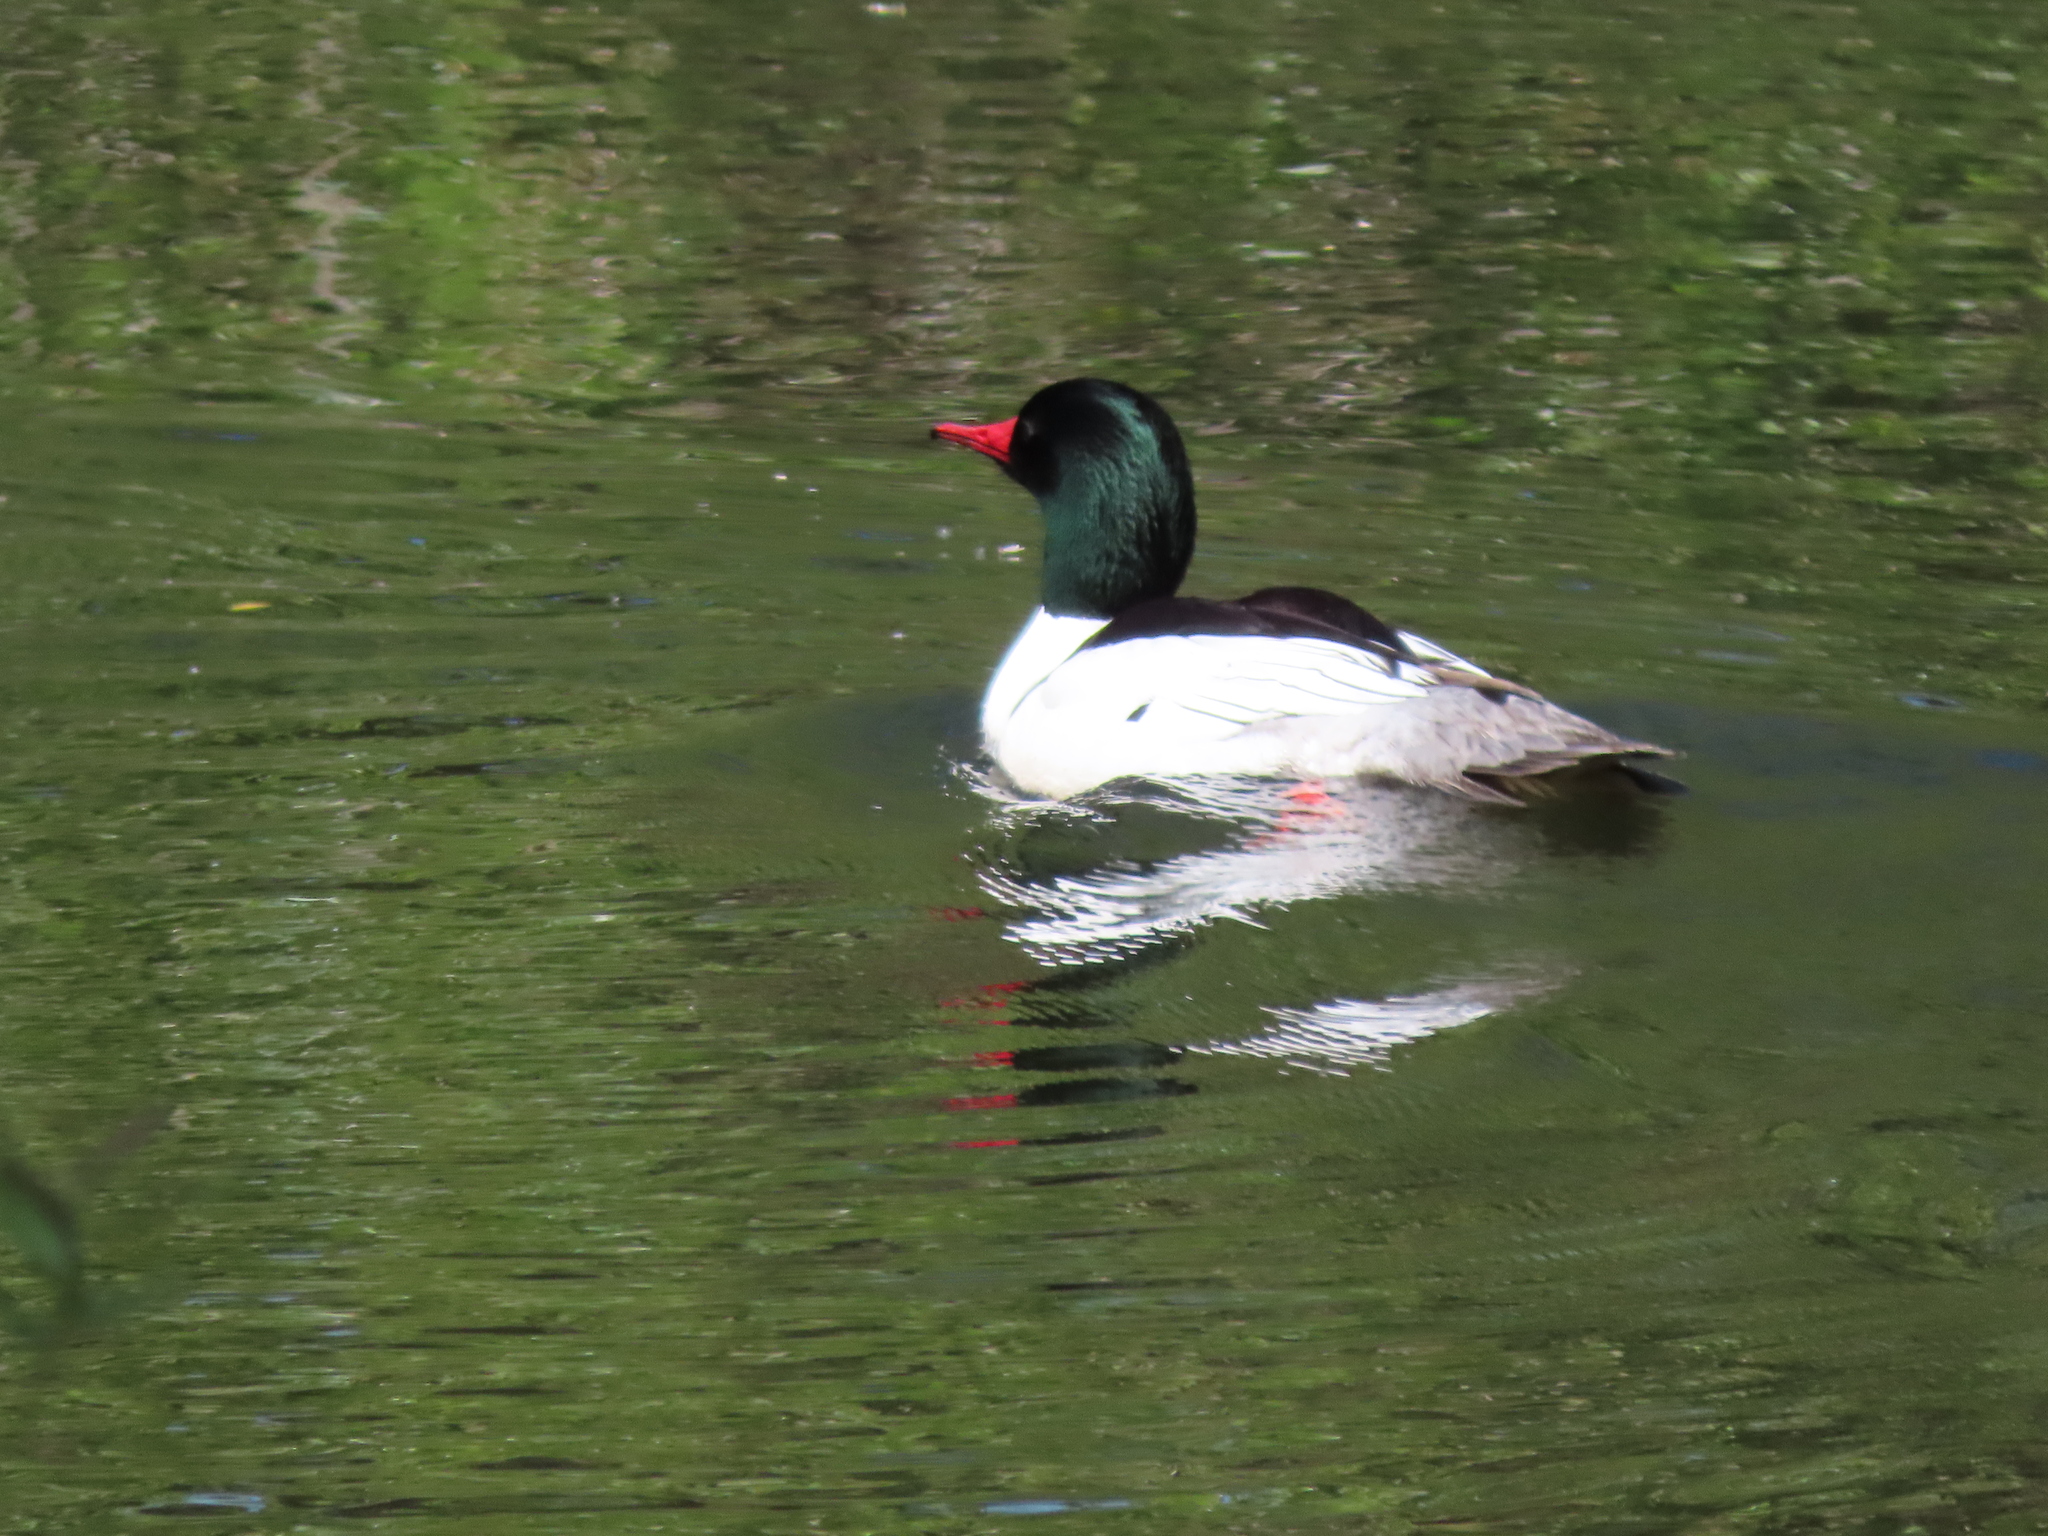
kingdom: Animalia
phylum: Chordata
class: Aves
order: Anseriformes
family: Anatidae
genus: Mergus
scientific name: Mergus merganser
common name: Common merganser
